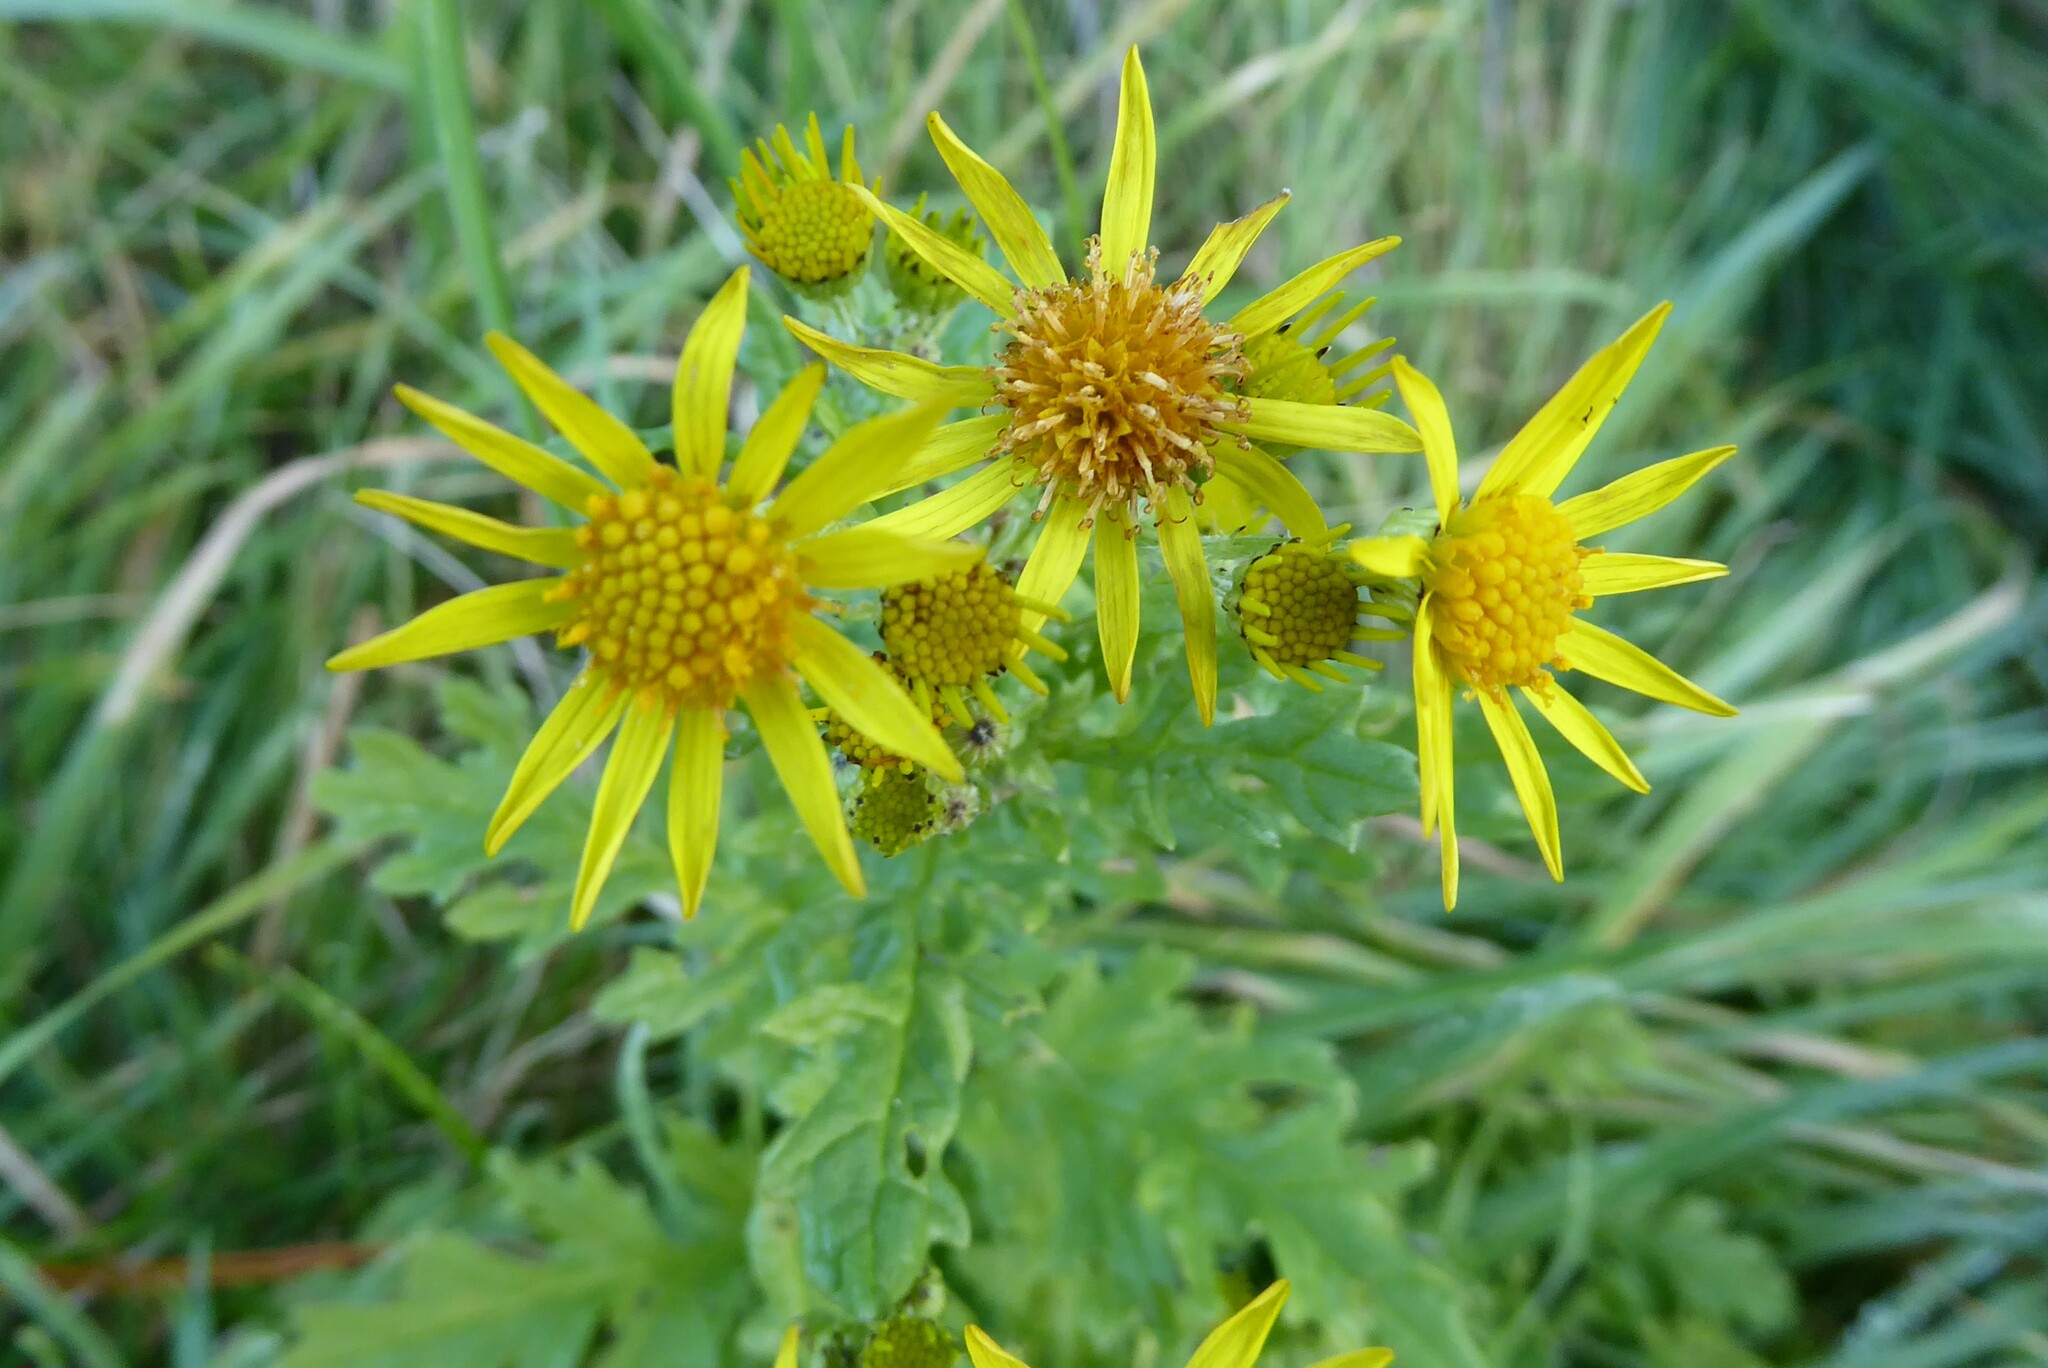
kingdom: Plantae
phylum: Tracheophyta
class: Magnoliopsida
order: Asterales
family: Asteraceae
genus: Jacobaea
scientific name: Jacobaea vulgaris
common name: Stinking willie
